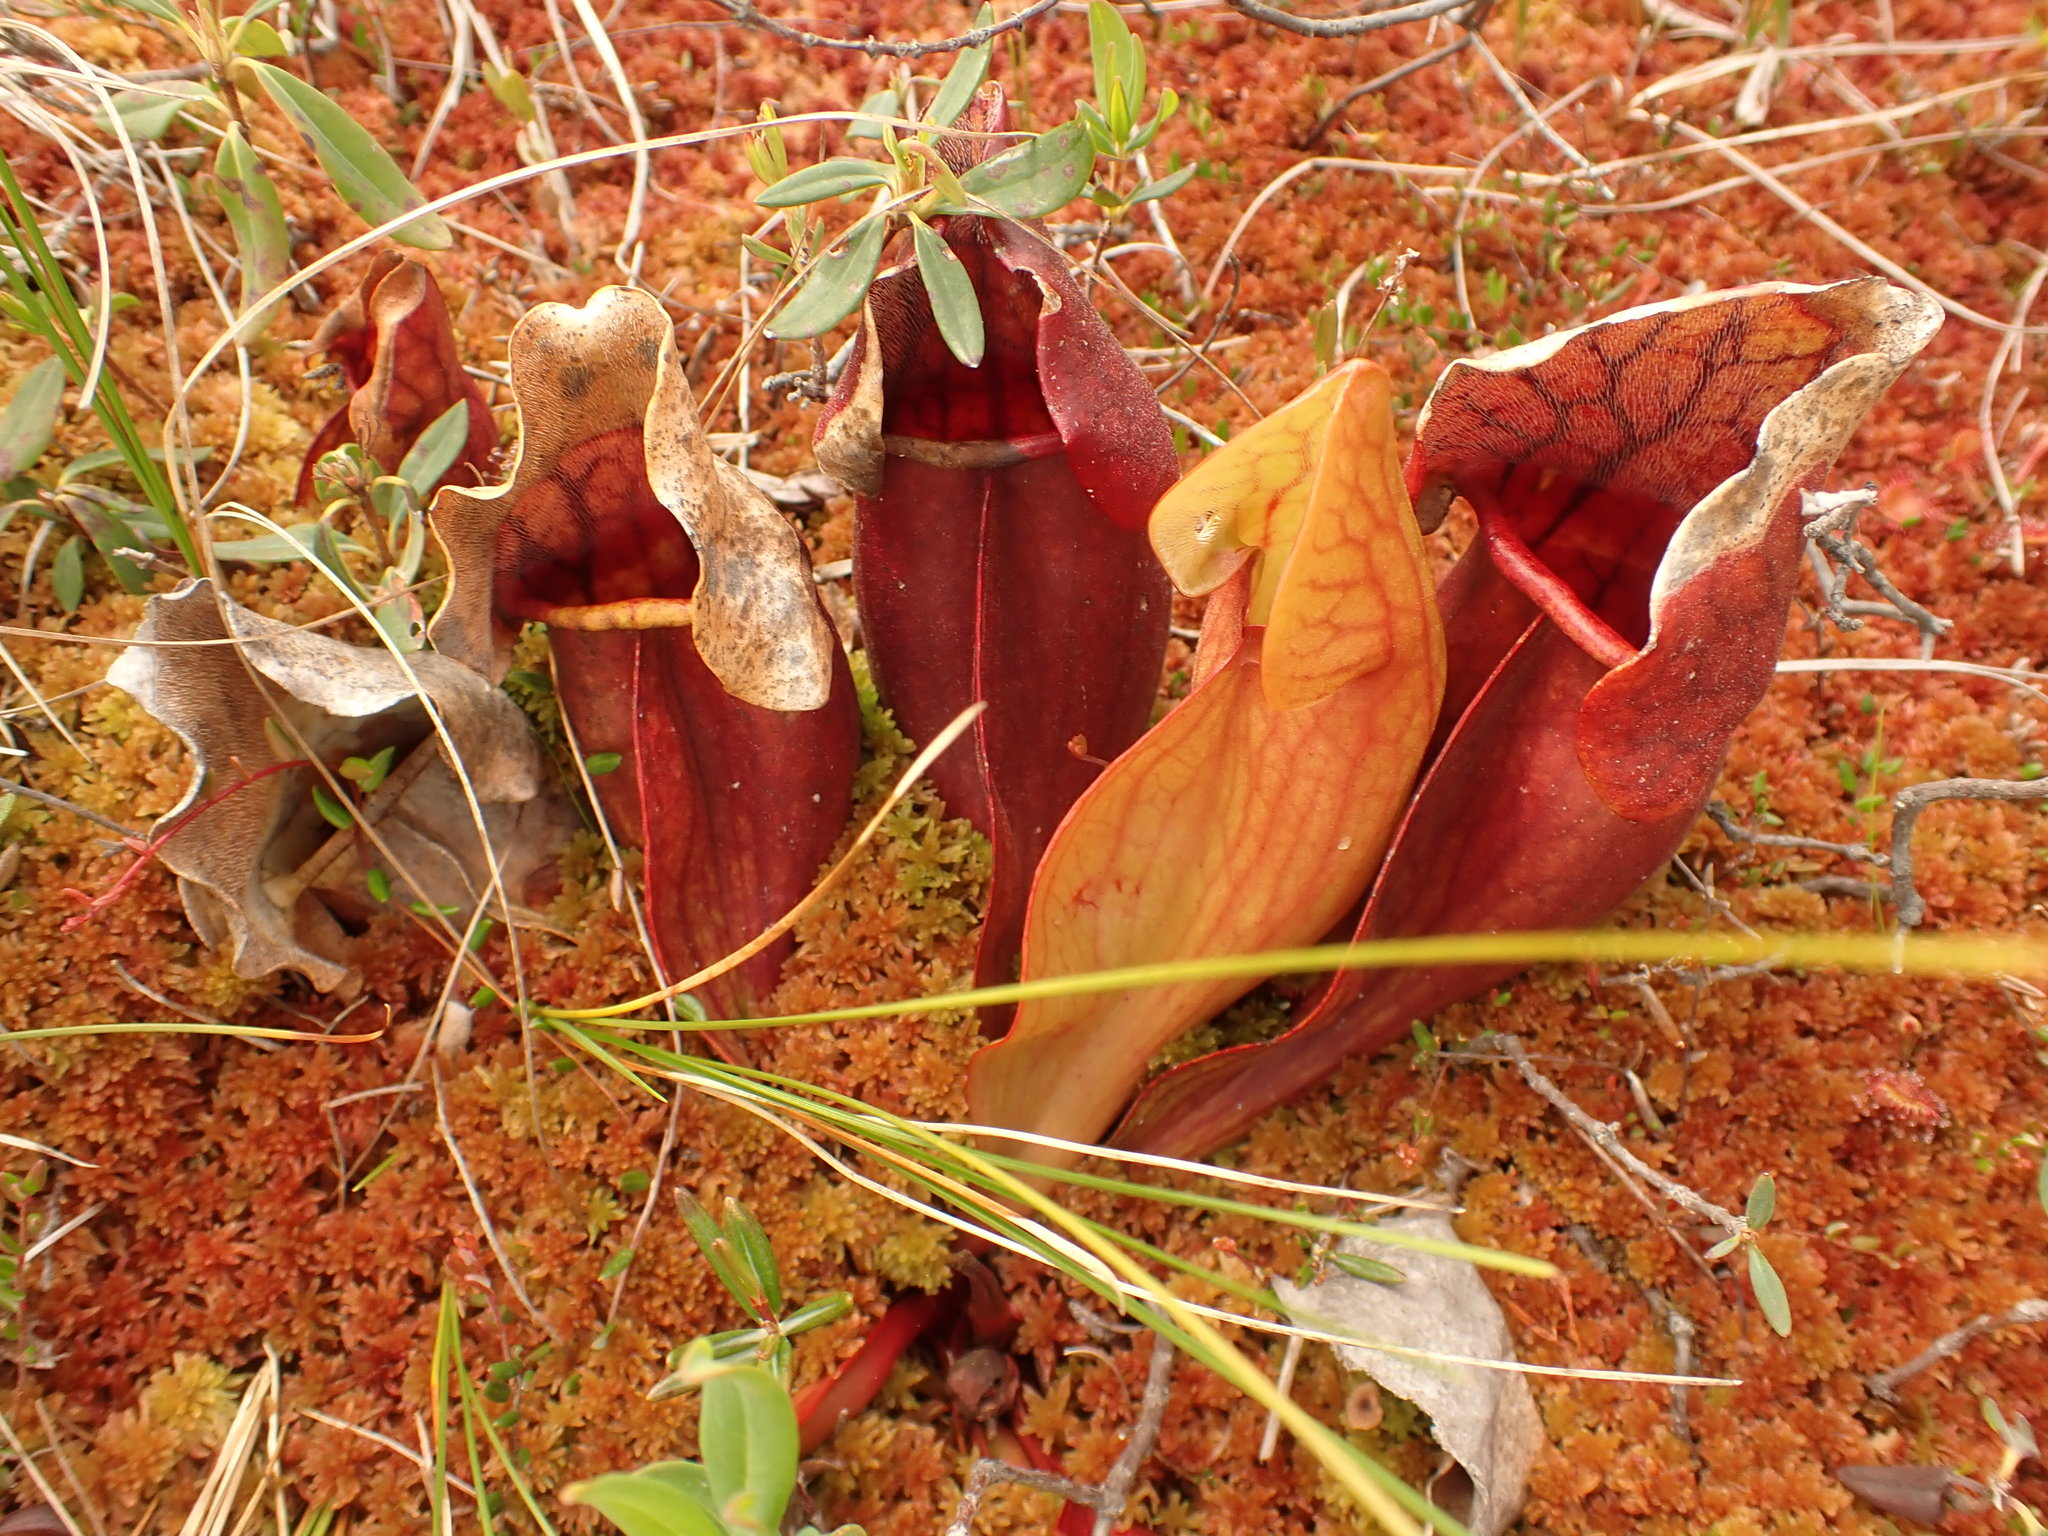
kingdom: Plantae
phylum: Tracheophyta
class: Magnoliopsida
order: Ericales
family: Sarraceniaceae
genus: Sarracenia
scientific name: Sarracenia purpurea
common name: Pitcherplant
